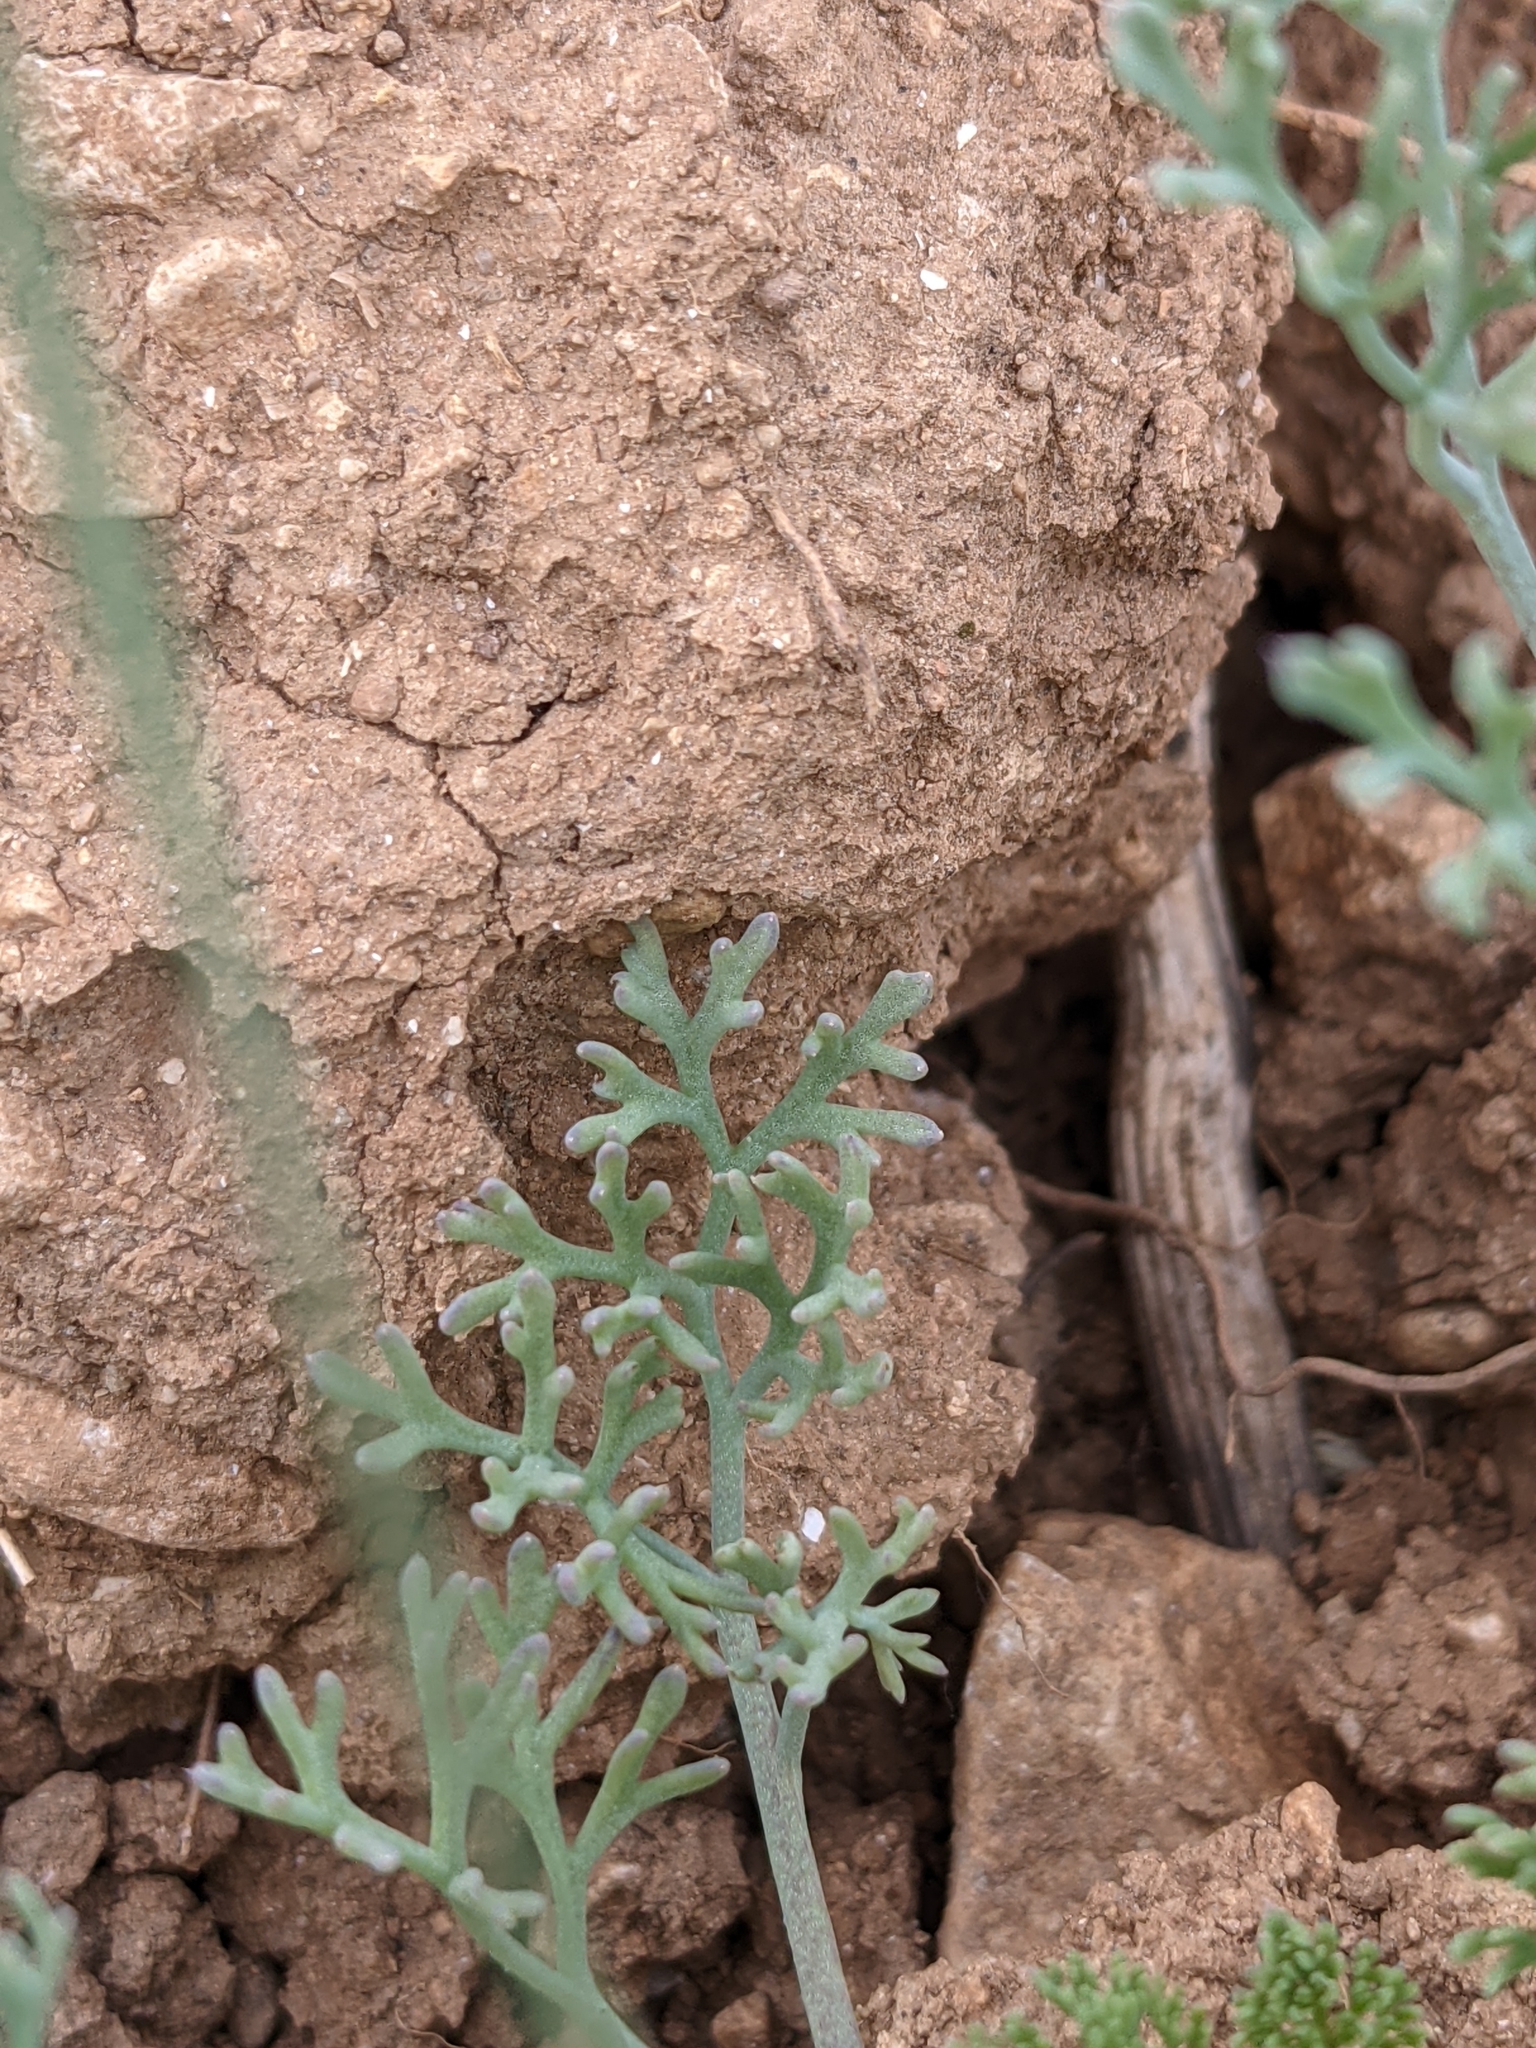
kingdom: Plantae
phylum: Tracheophyta
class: Magnoliopsida
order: Ranunculales
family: Papaveraceae
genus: Fumaria
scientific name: Fumaria parviflora
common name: Fine-leaved fumitory
